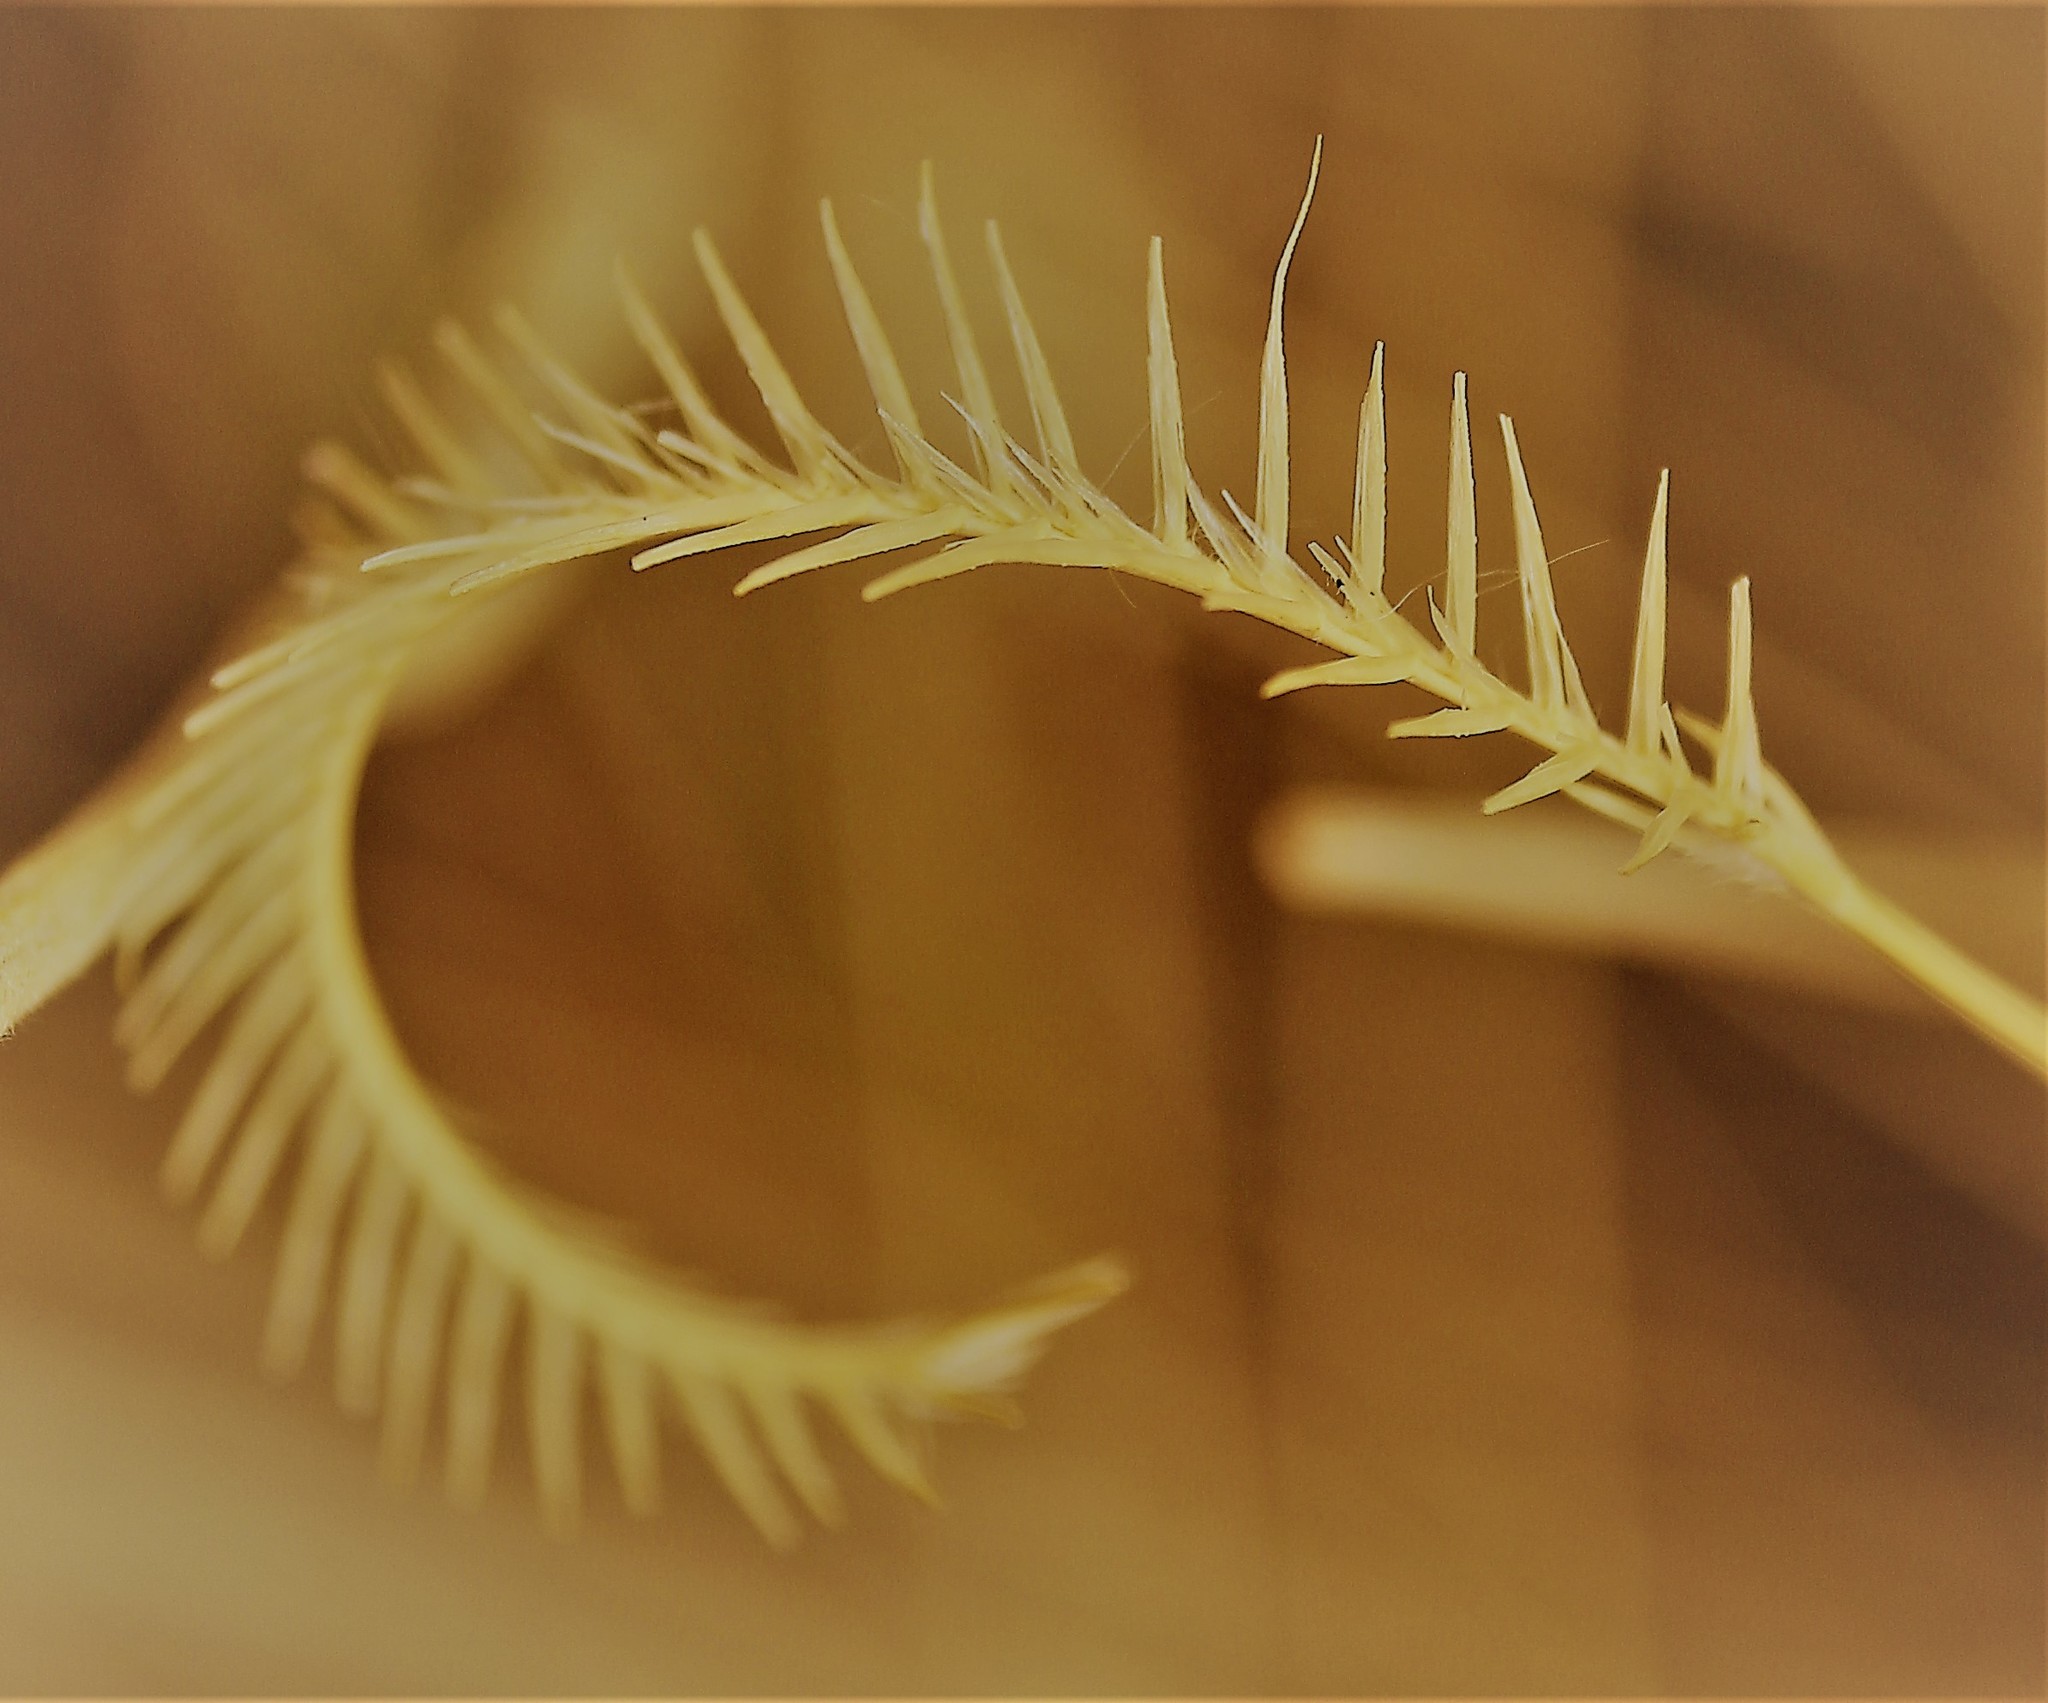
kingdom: Plantae
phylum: Tracheophyta
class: Liliopsida
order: Poales
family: Poaceae
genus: Bouteloua
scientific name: Bouteloua gracilis
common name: Blue grama
